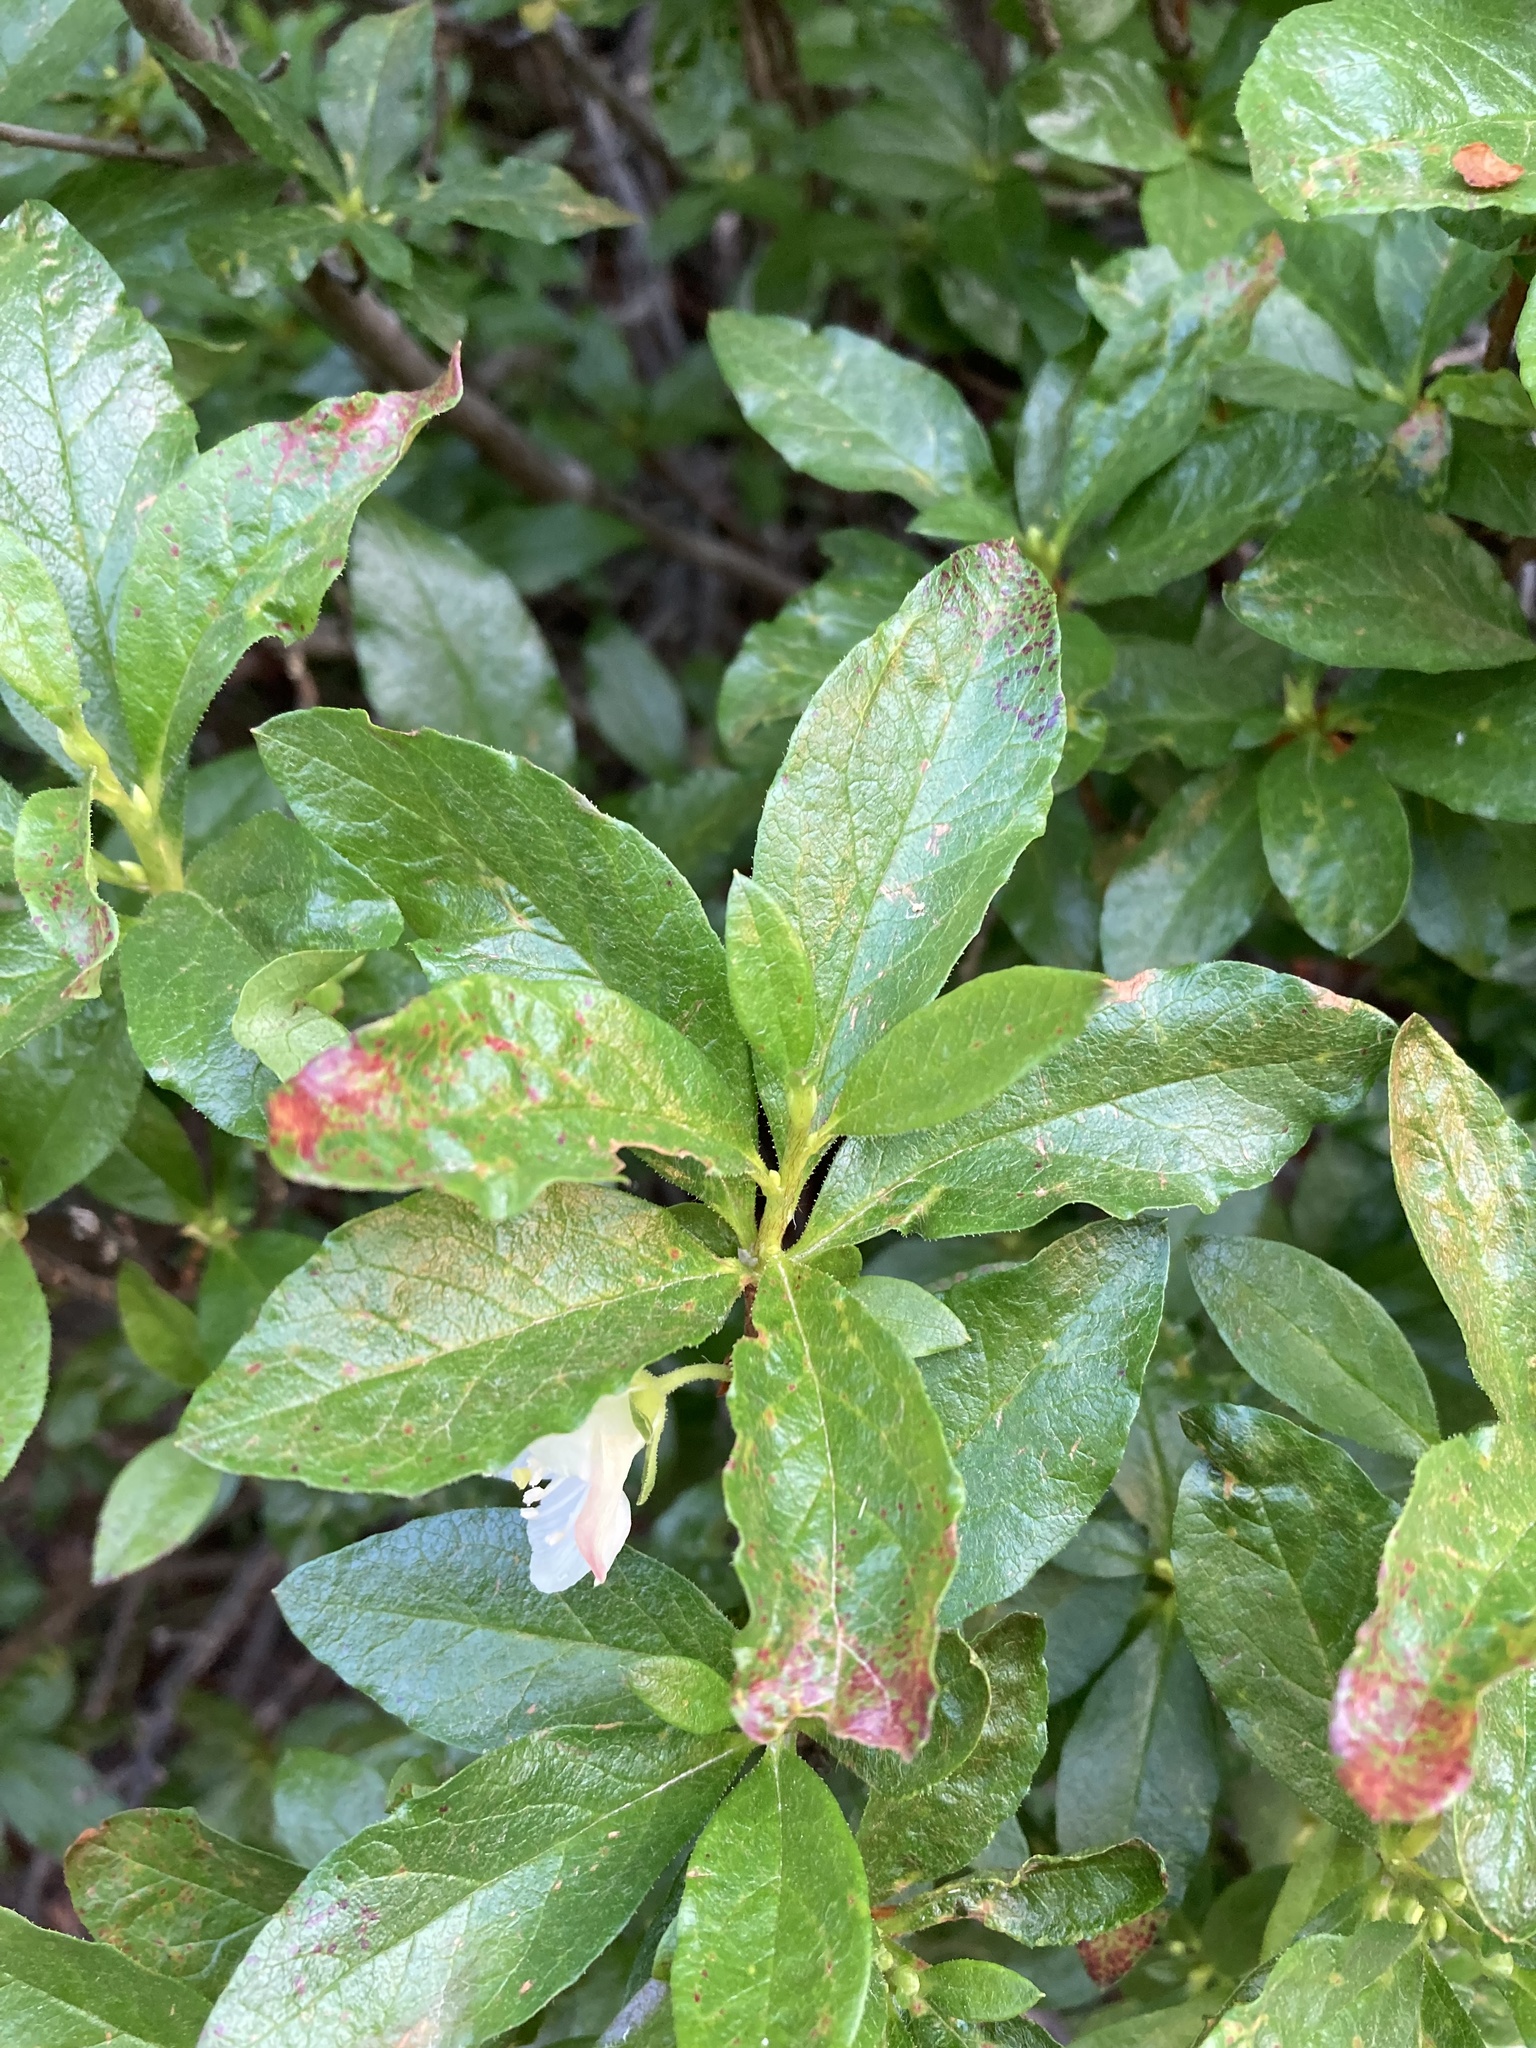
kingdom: Plantae
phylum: Tracheophyta
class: Magnoliopsida
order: Ericales
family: Ericaceae
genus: Rhododendron
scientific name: Rhododendron albiflorum
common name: White rhododendron
